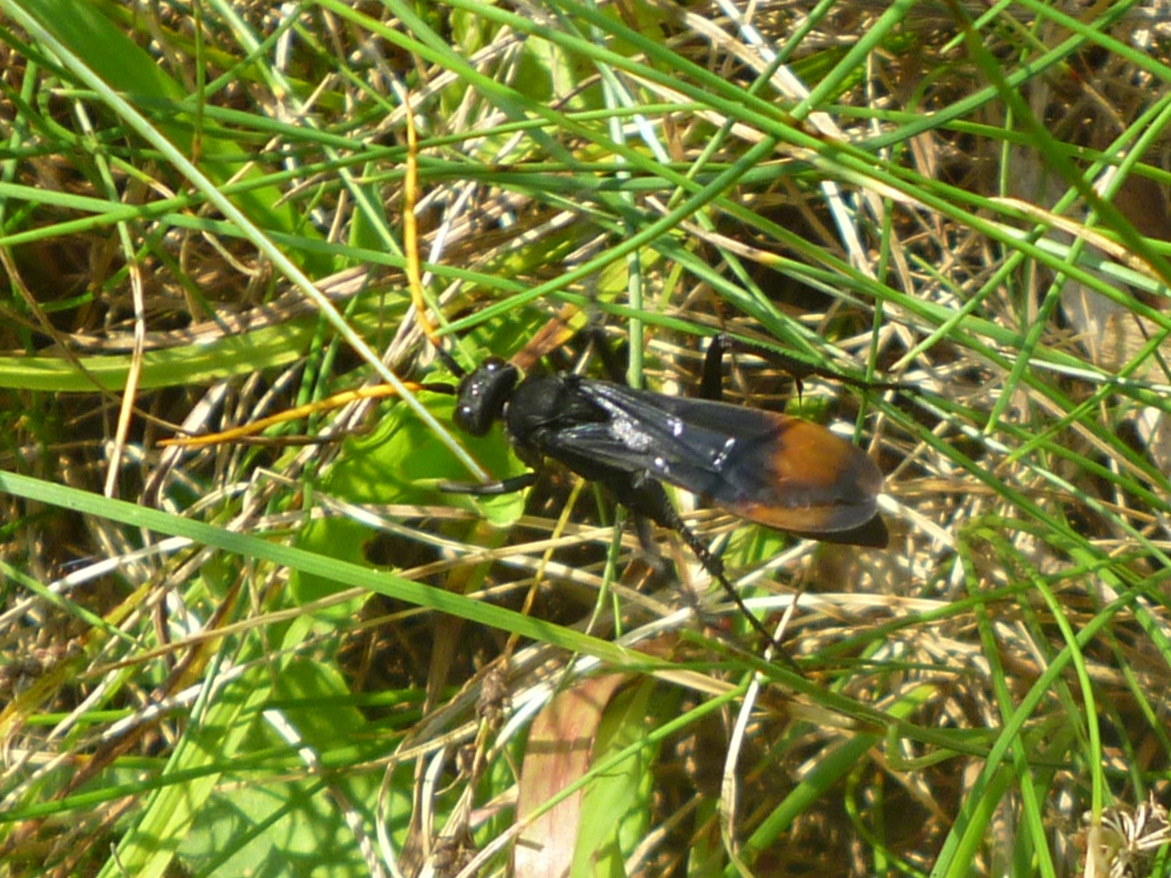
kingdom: Animalia
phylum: Arthropoda
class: Insecta
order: Hymenoptera
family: Pompilidae
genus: Entypus
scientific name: Entypus unifasciatus
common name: Eastern tawny-horned spider wasp
